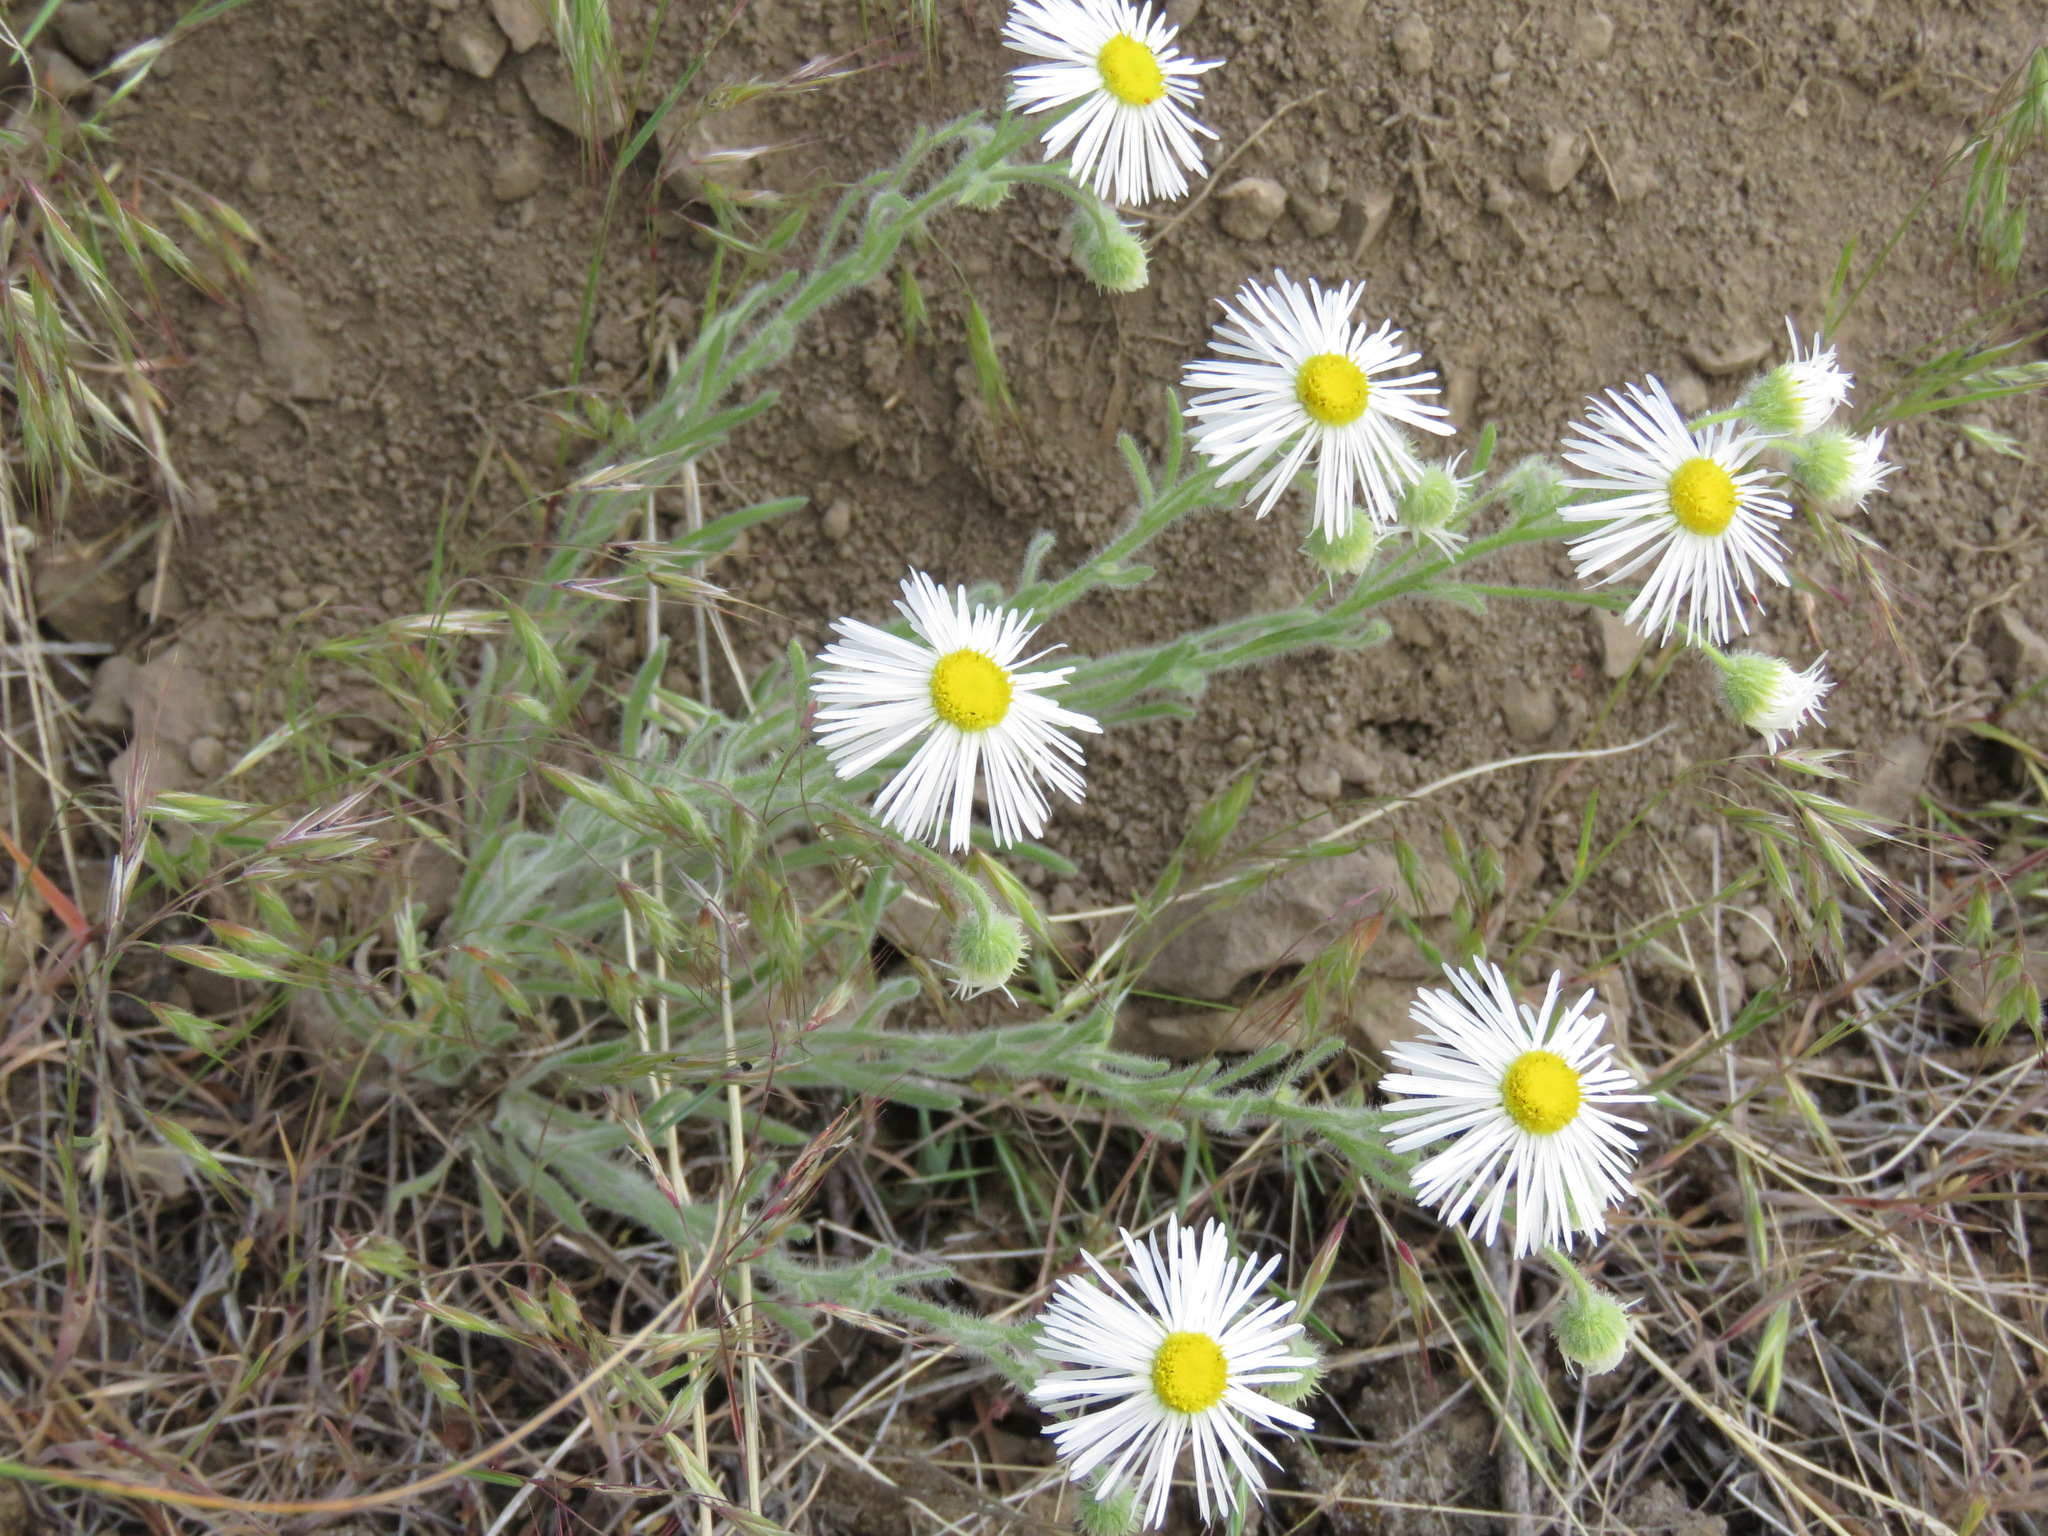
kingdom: Plantae
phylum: Tracheophyta
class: Magnoliopsida
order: Asterales
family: Asteraceae
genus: Erigeron
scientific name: Erigeron pumilus
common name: Shaggy fleabane
